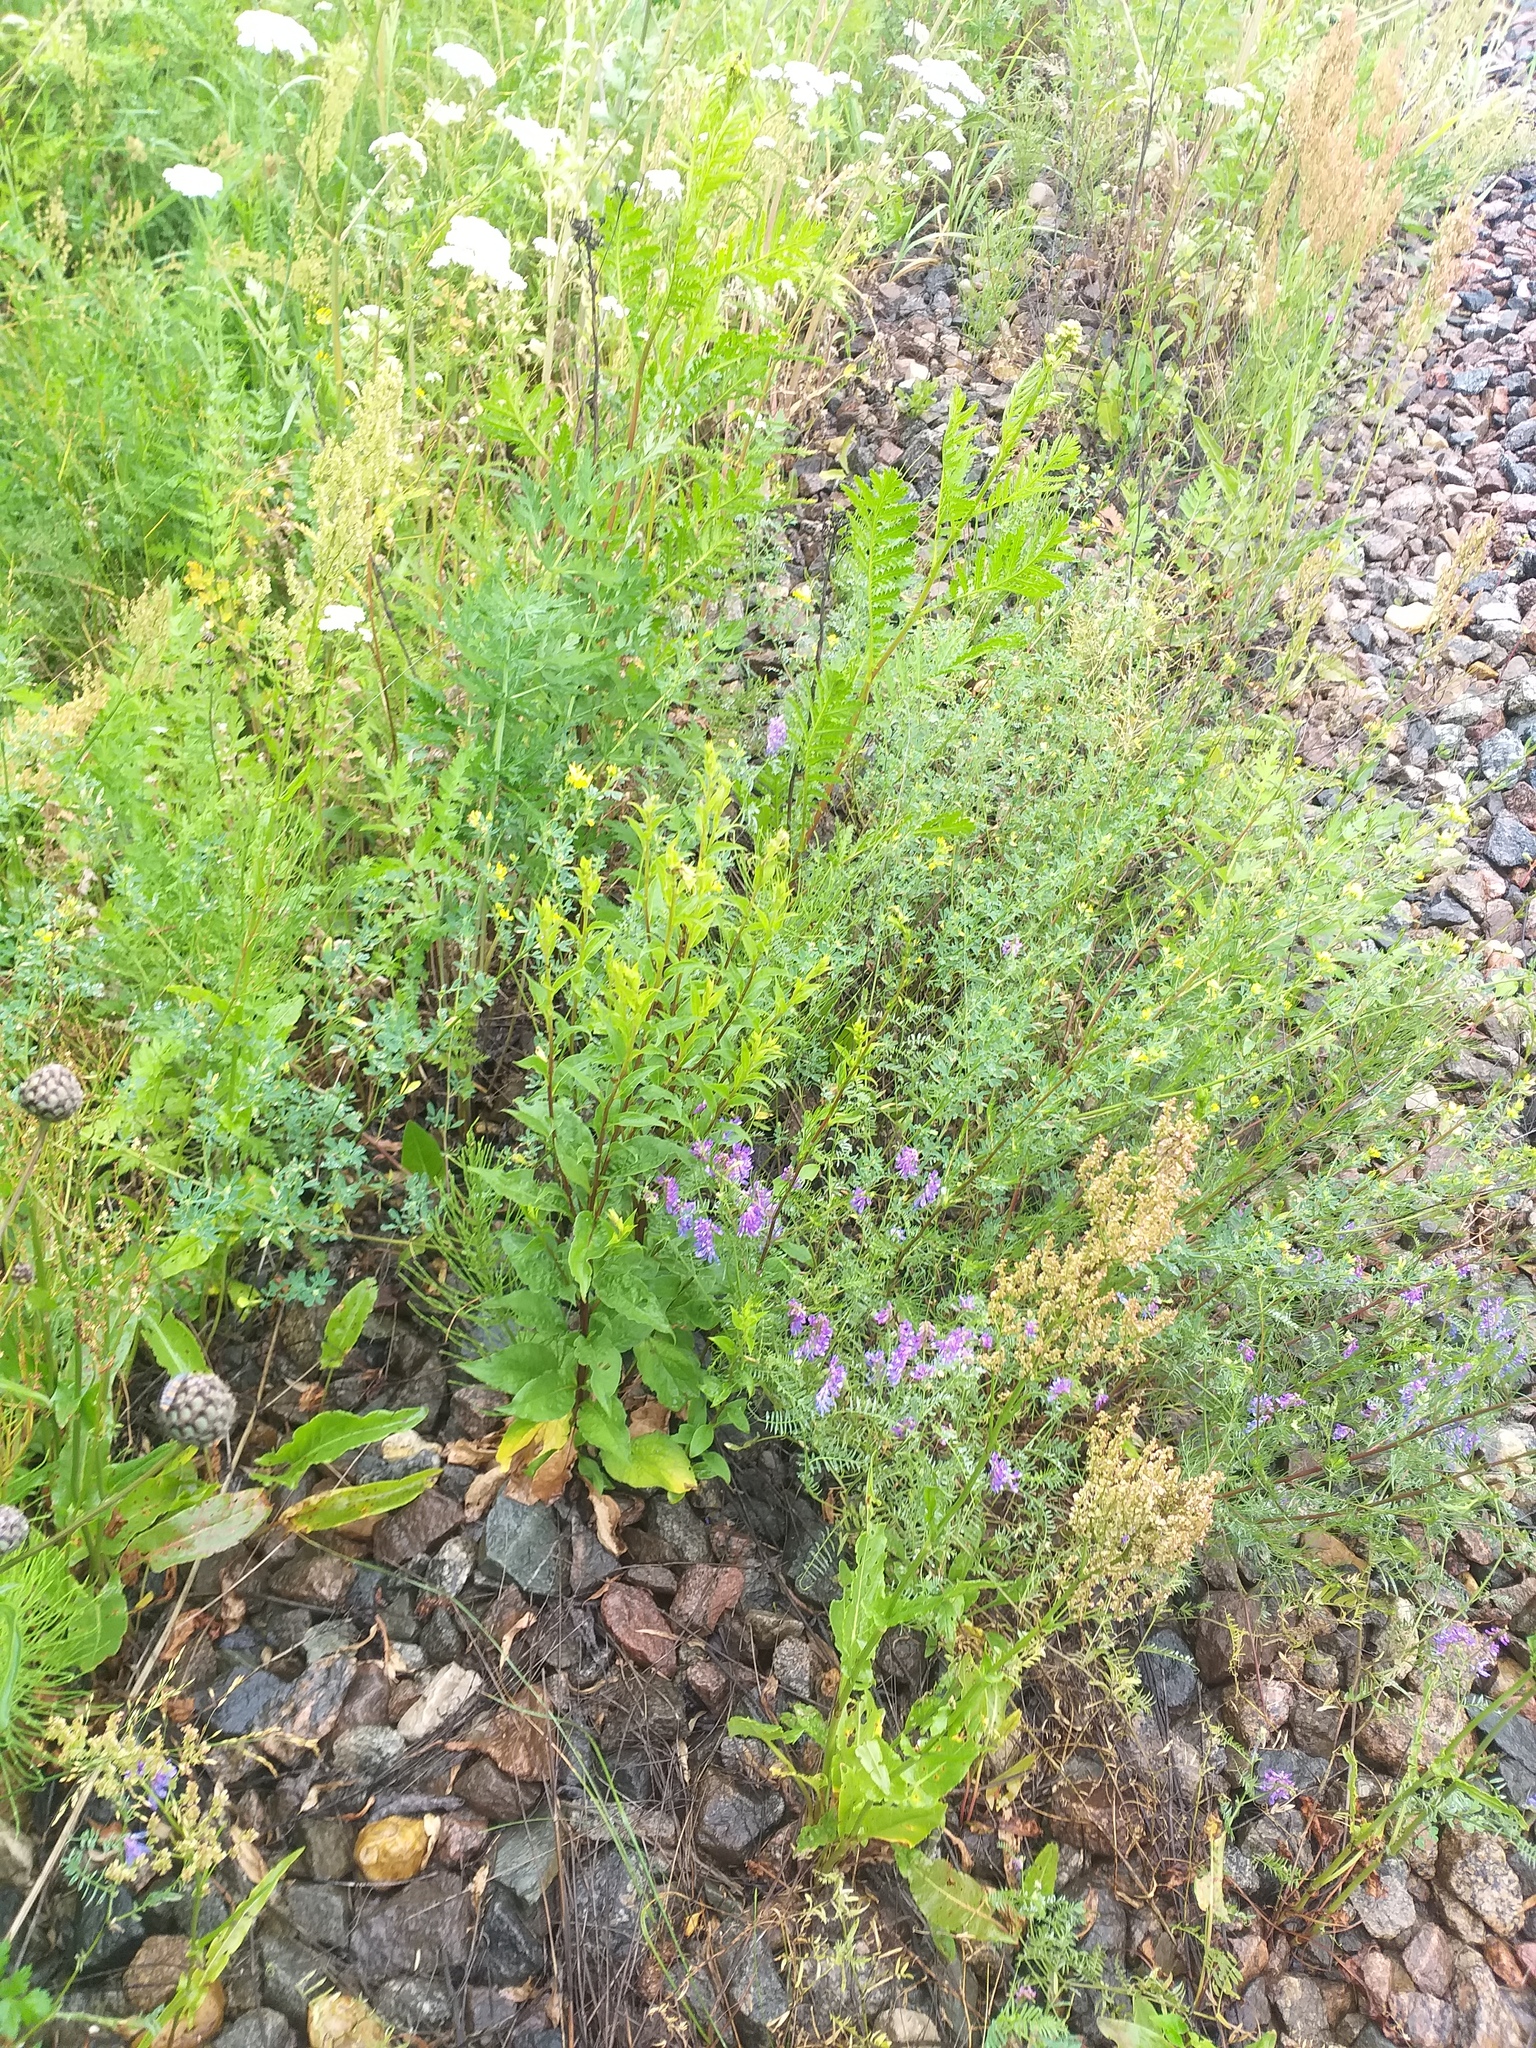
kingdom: Plantae
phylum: Tracheophyta
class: Magnoliopsida
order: Asterales
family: Asteraceae
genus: Solidago
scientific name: Solidago virgaurea
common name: Goldenrod
